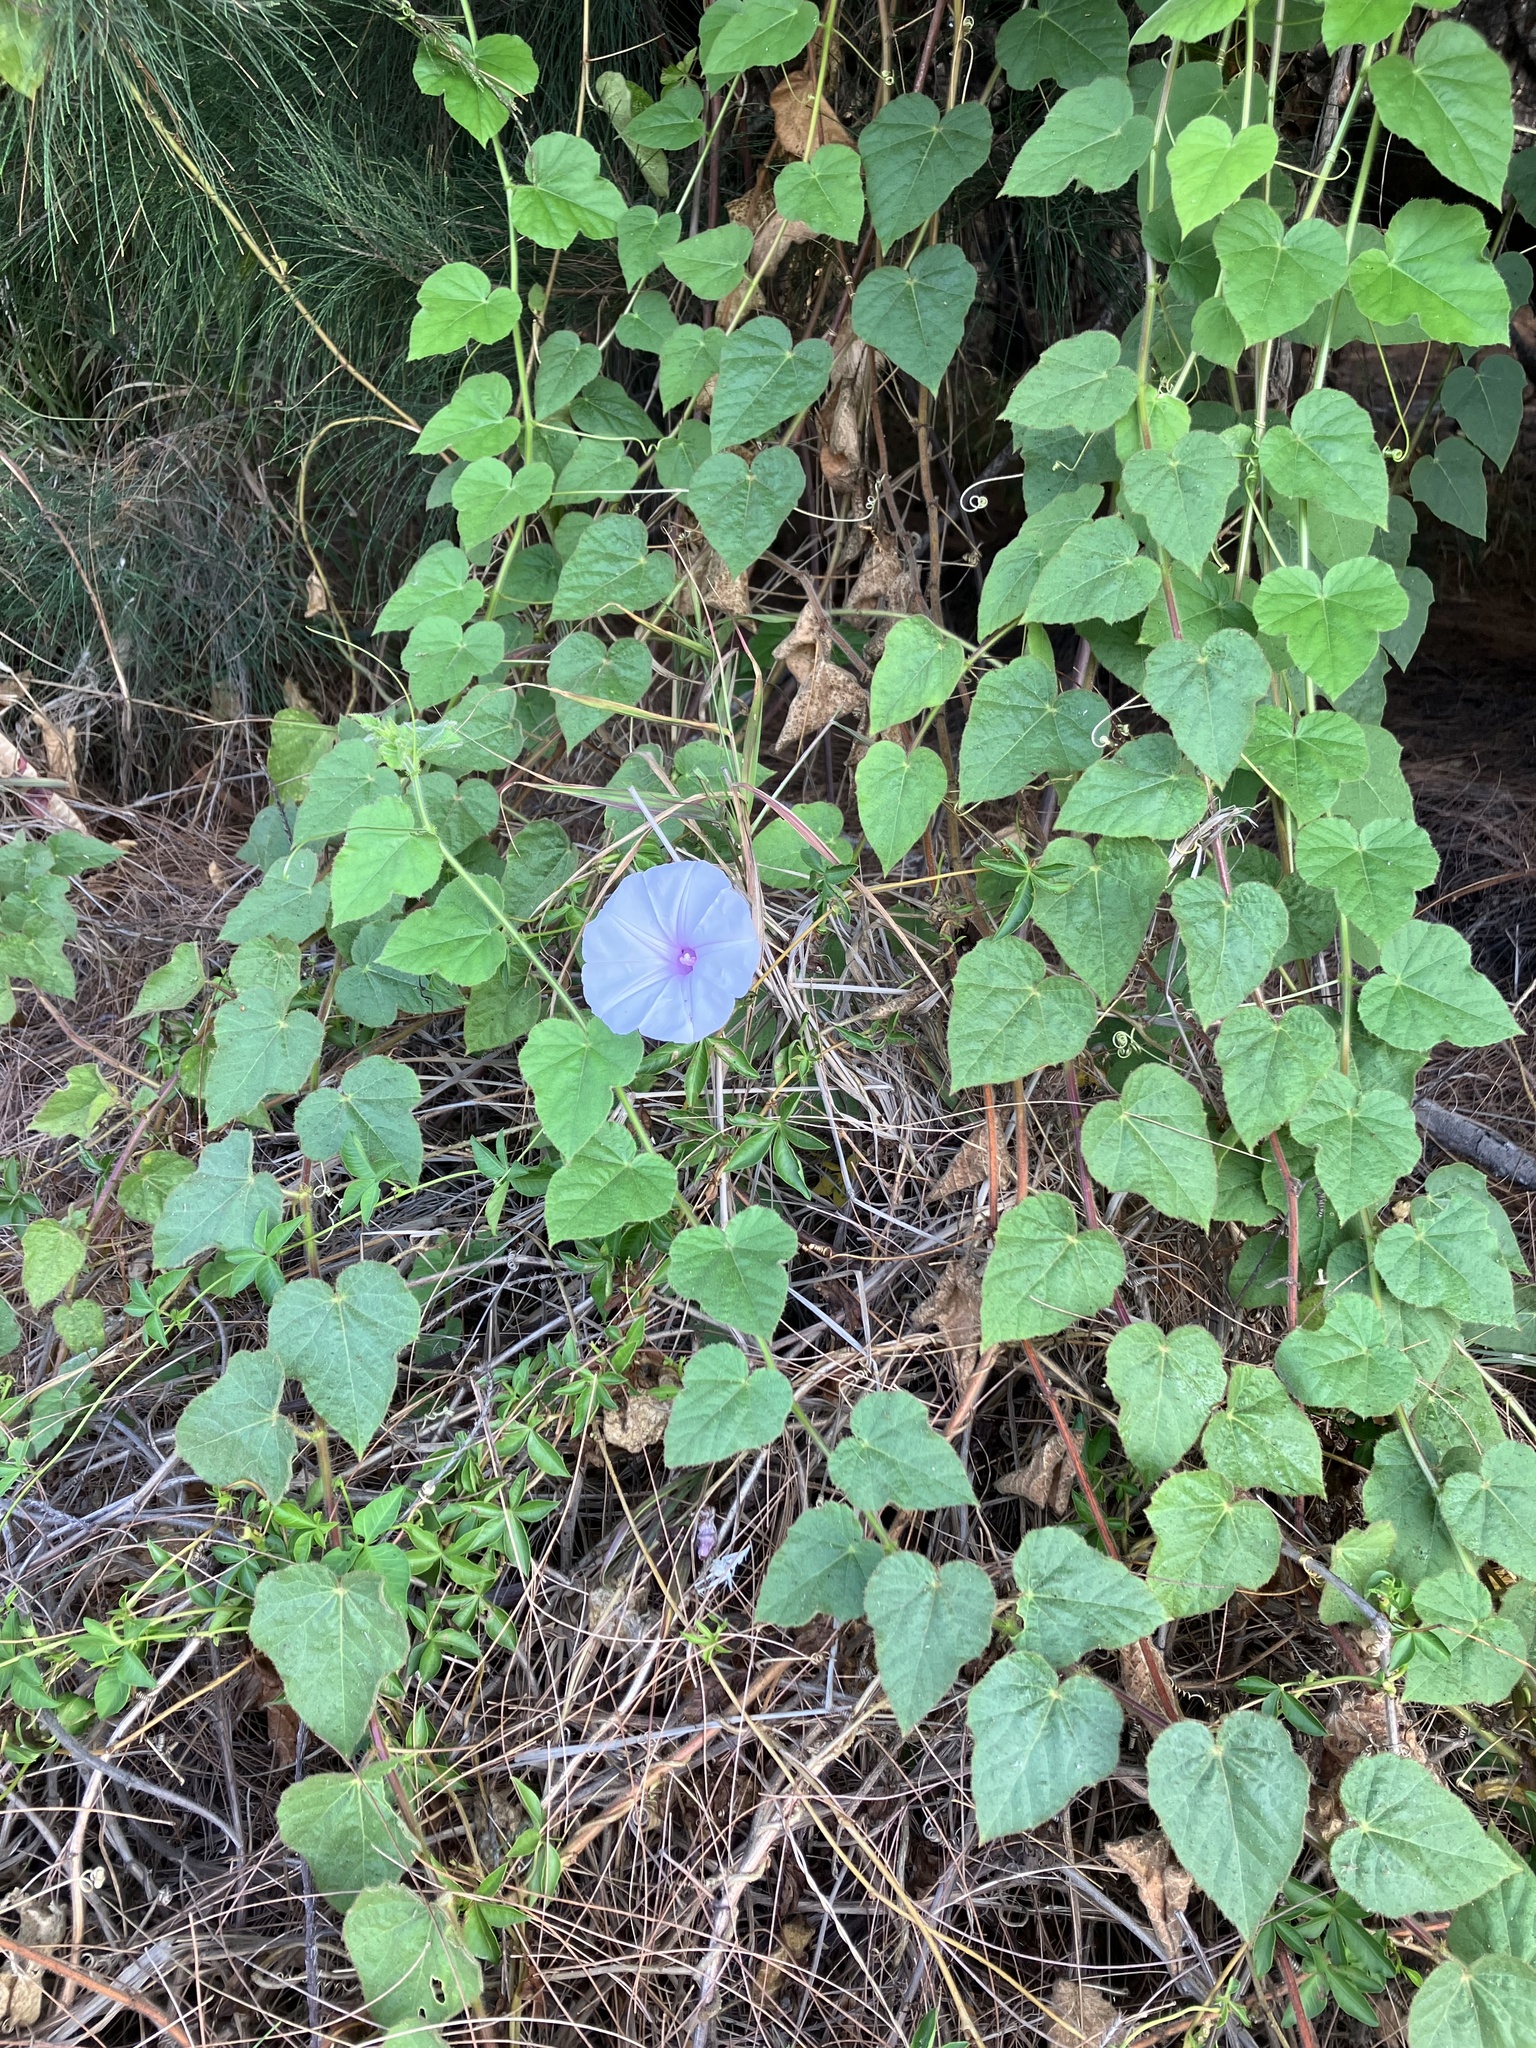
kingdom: Plantae
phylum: Tracheophyta
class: Magnoliopsida
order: Solanales
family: Convolvulaceae
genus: Ipomoea
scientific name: Ipomoea cairica
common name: Mile a minute vine
